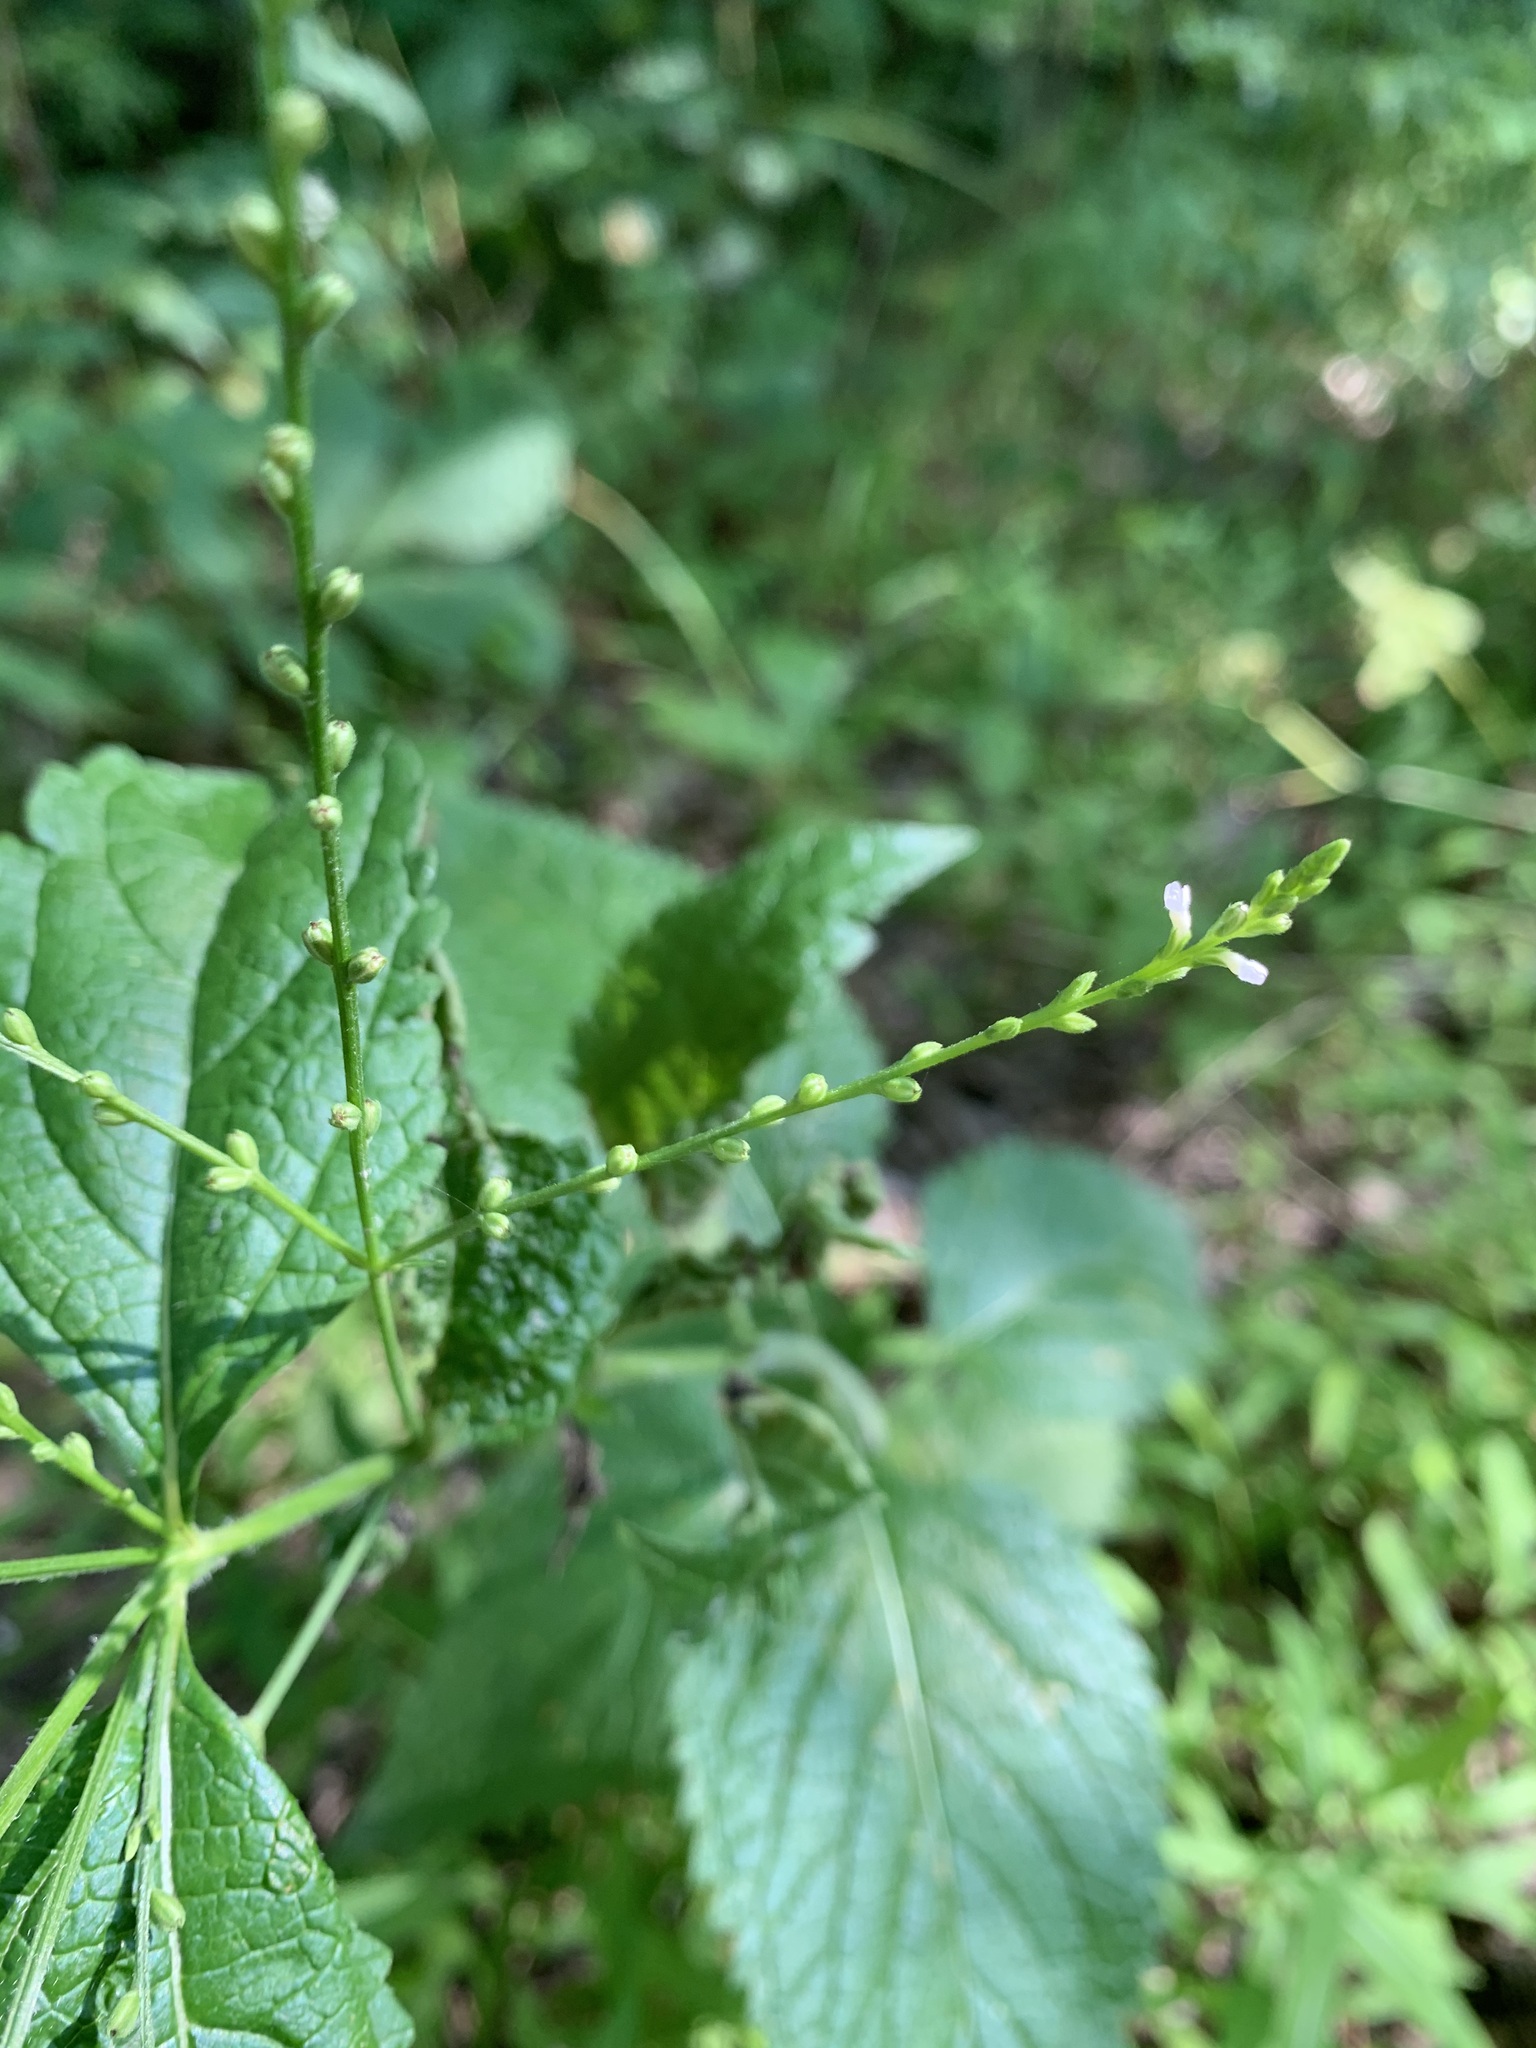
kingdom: Plantae
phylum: Tracheophyta
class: Magnoliopsida
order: Lamiales
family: Verbenaceae
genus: Verbena
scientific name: Verbena urticifolia
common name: Nettle-leaved vervain
